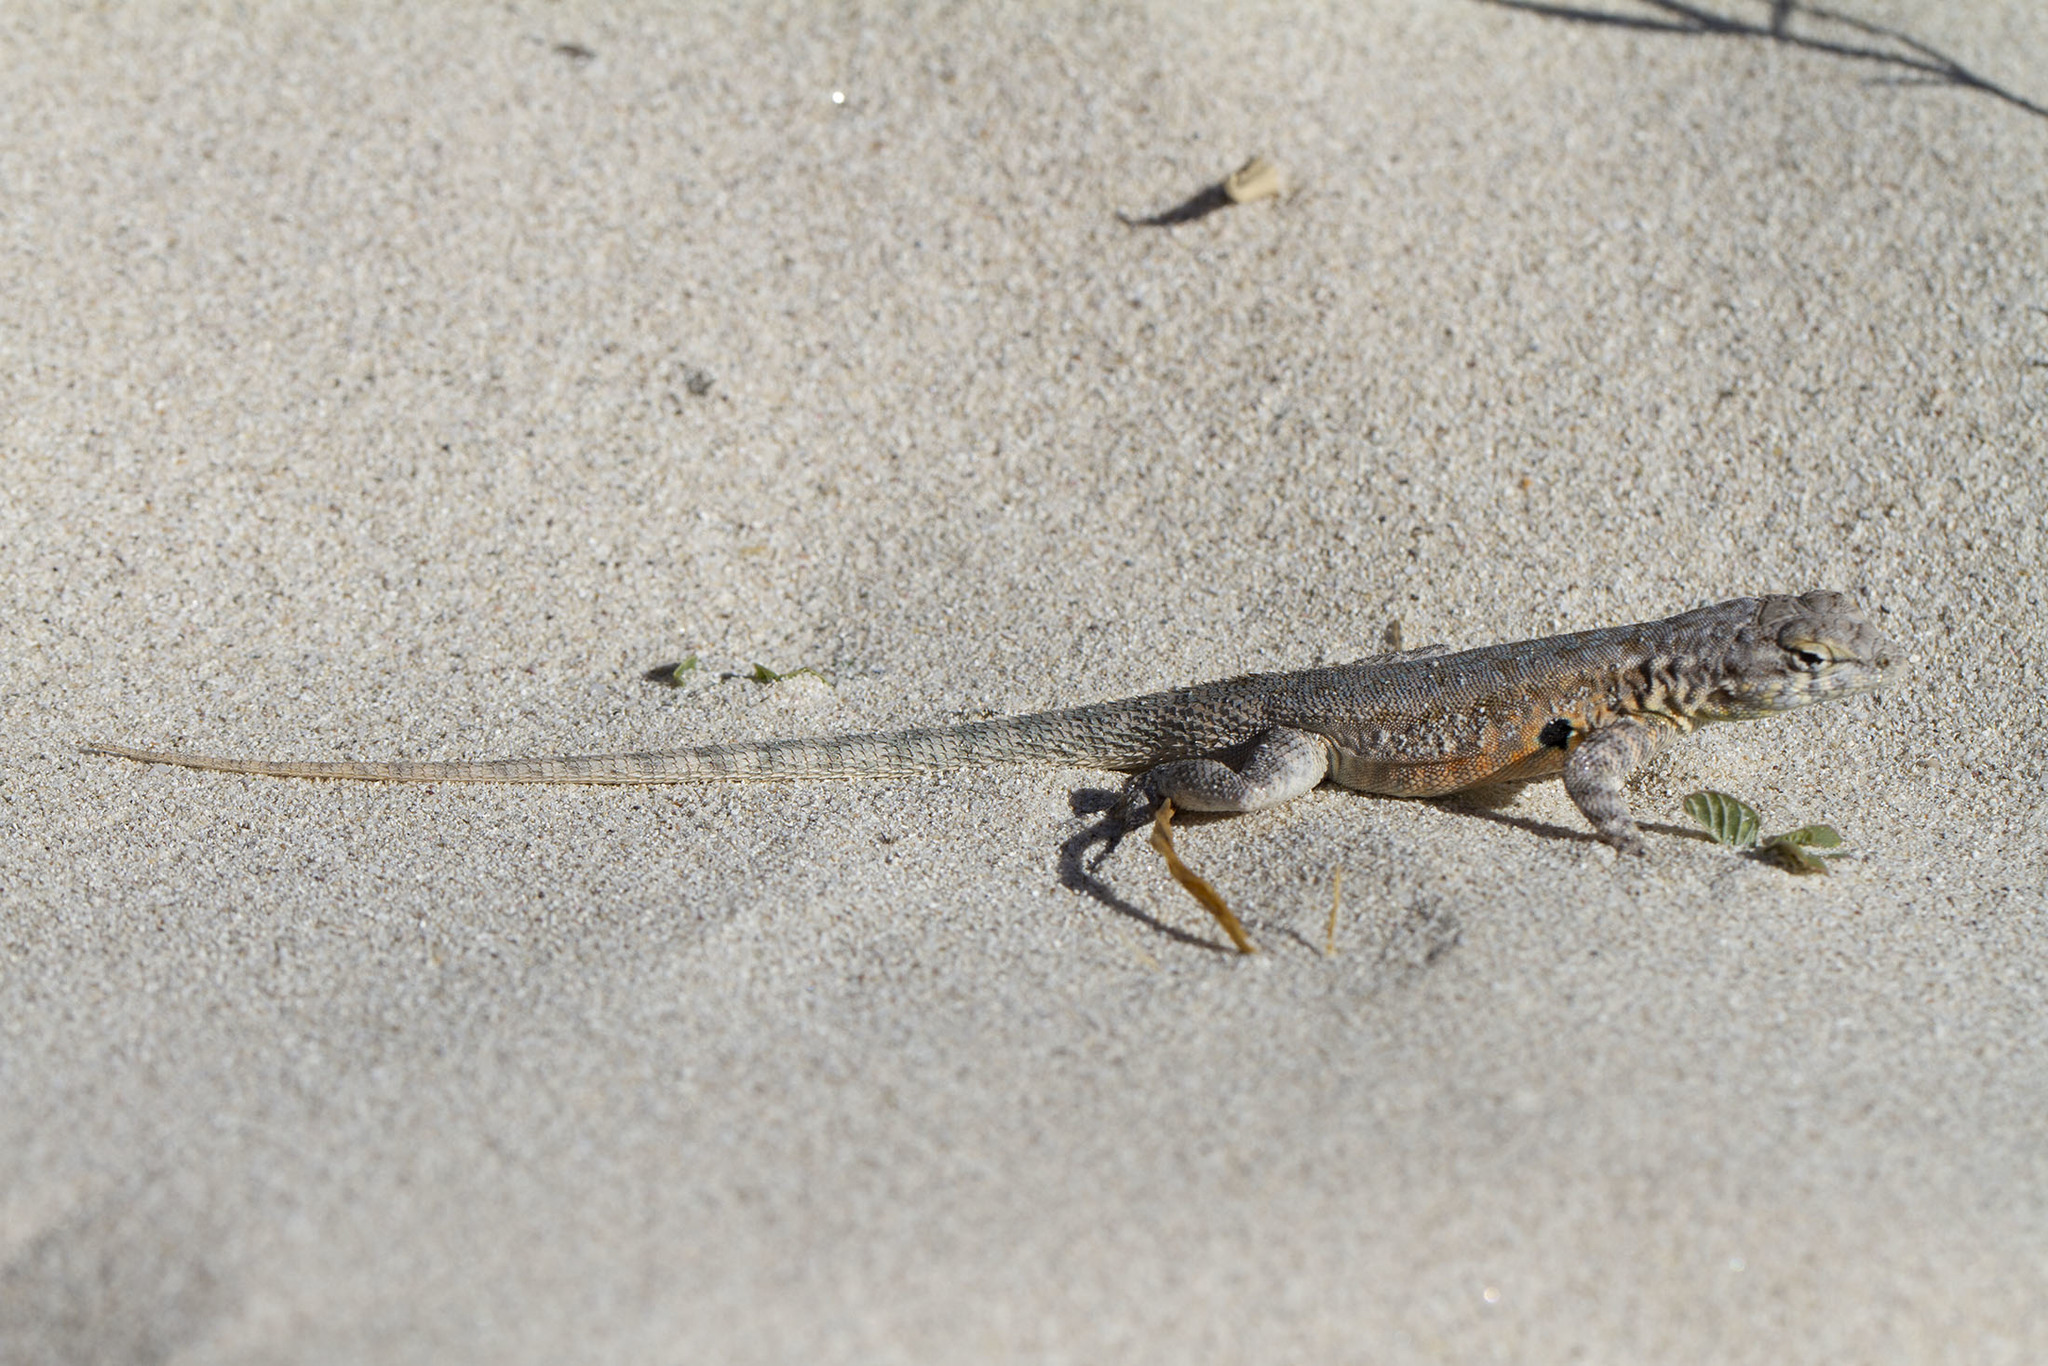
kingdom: Animalia
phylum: Chordata
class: Squamata
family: Phrynosomatidae
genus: Uta
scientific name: Uta stansburiana
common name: Side-blotched lizard
